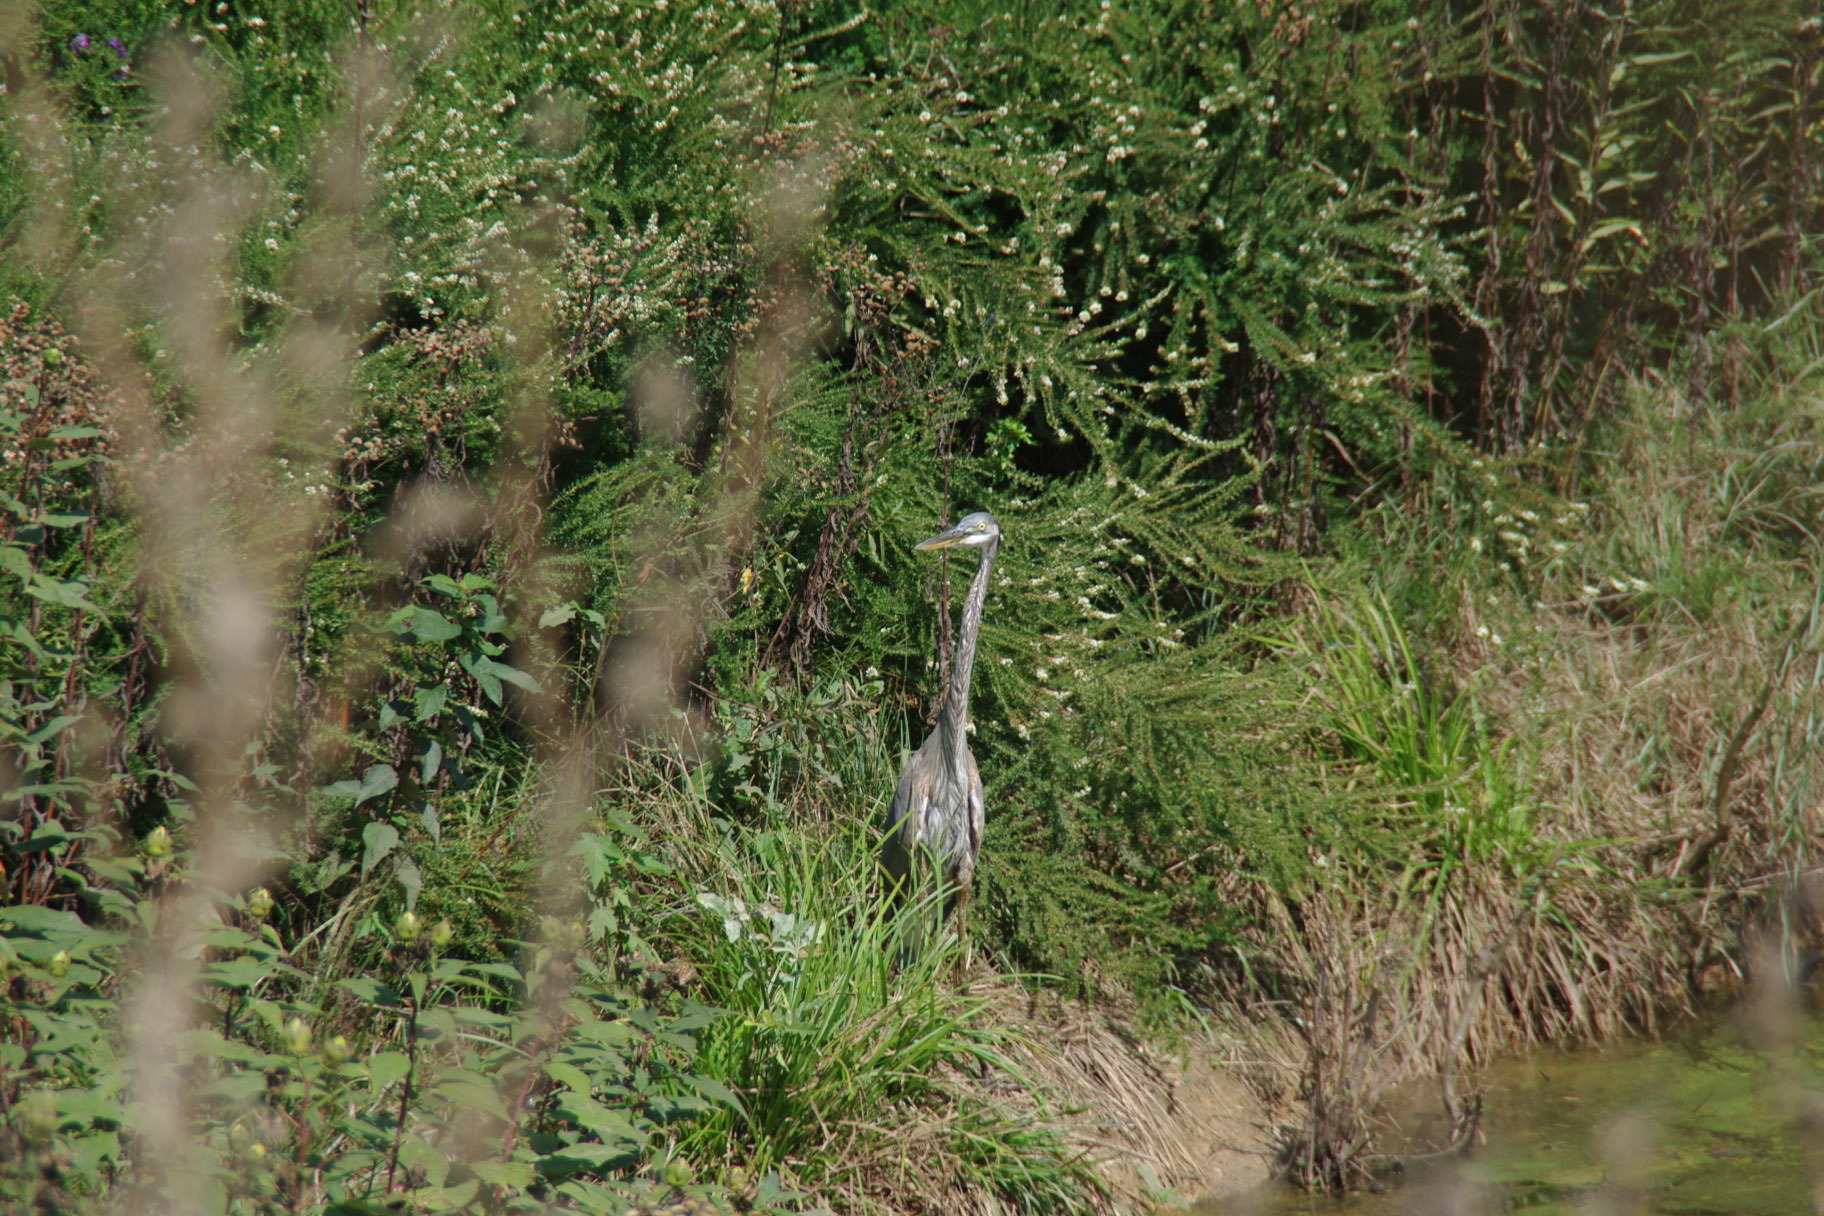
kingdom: Animalia
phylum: Chordata
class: Aves
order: Pelecaniformes
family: Ardeidae
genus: Ardea
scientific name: Ardea herodias
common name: Great blue heron
